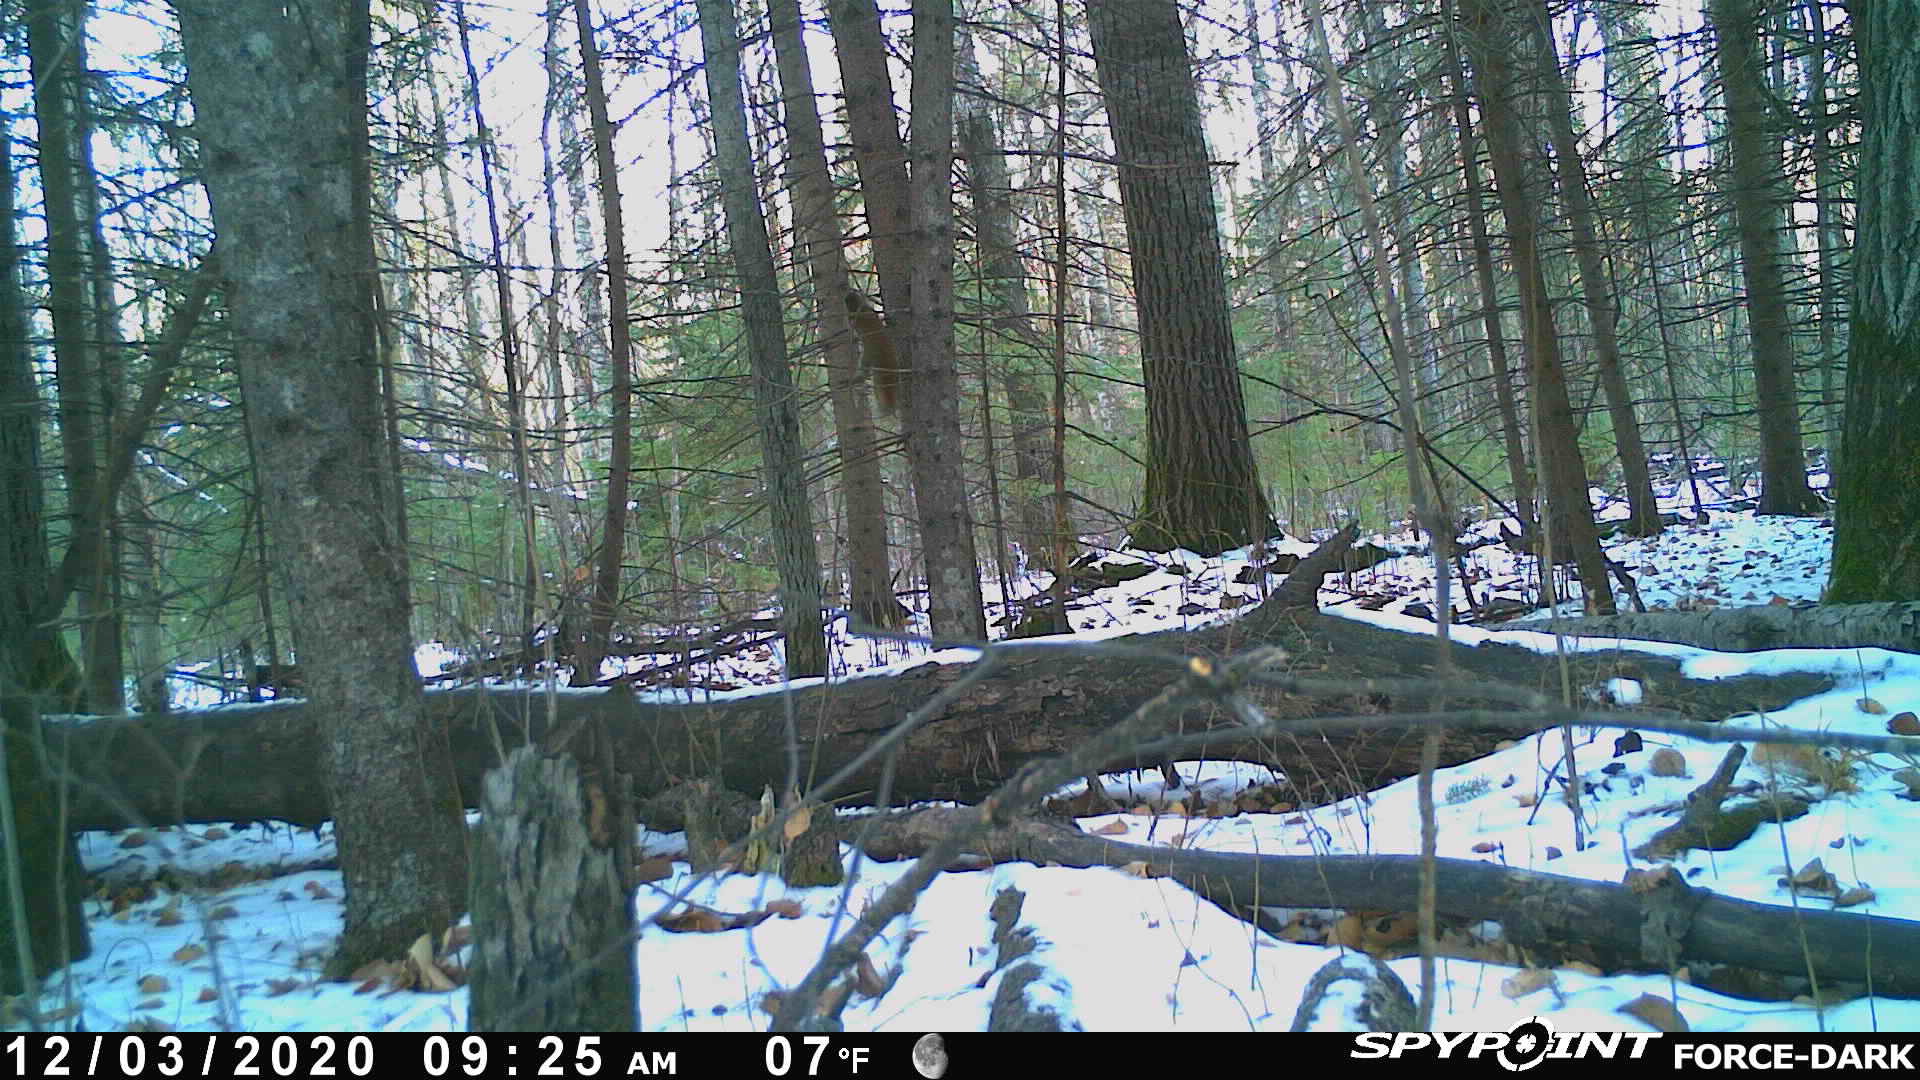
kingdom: Animalia
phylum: Chordata
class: Mammalia
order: Rodentia
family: Sciuridae
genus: Tamiasciurus
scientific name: Tamiasciurus hudsonicus
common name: Red squirrel
